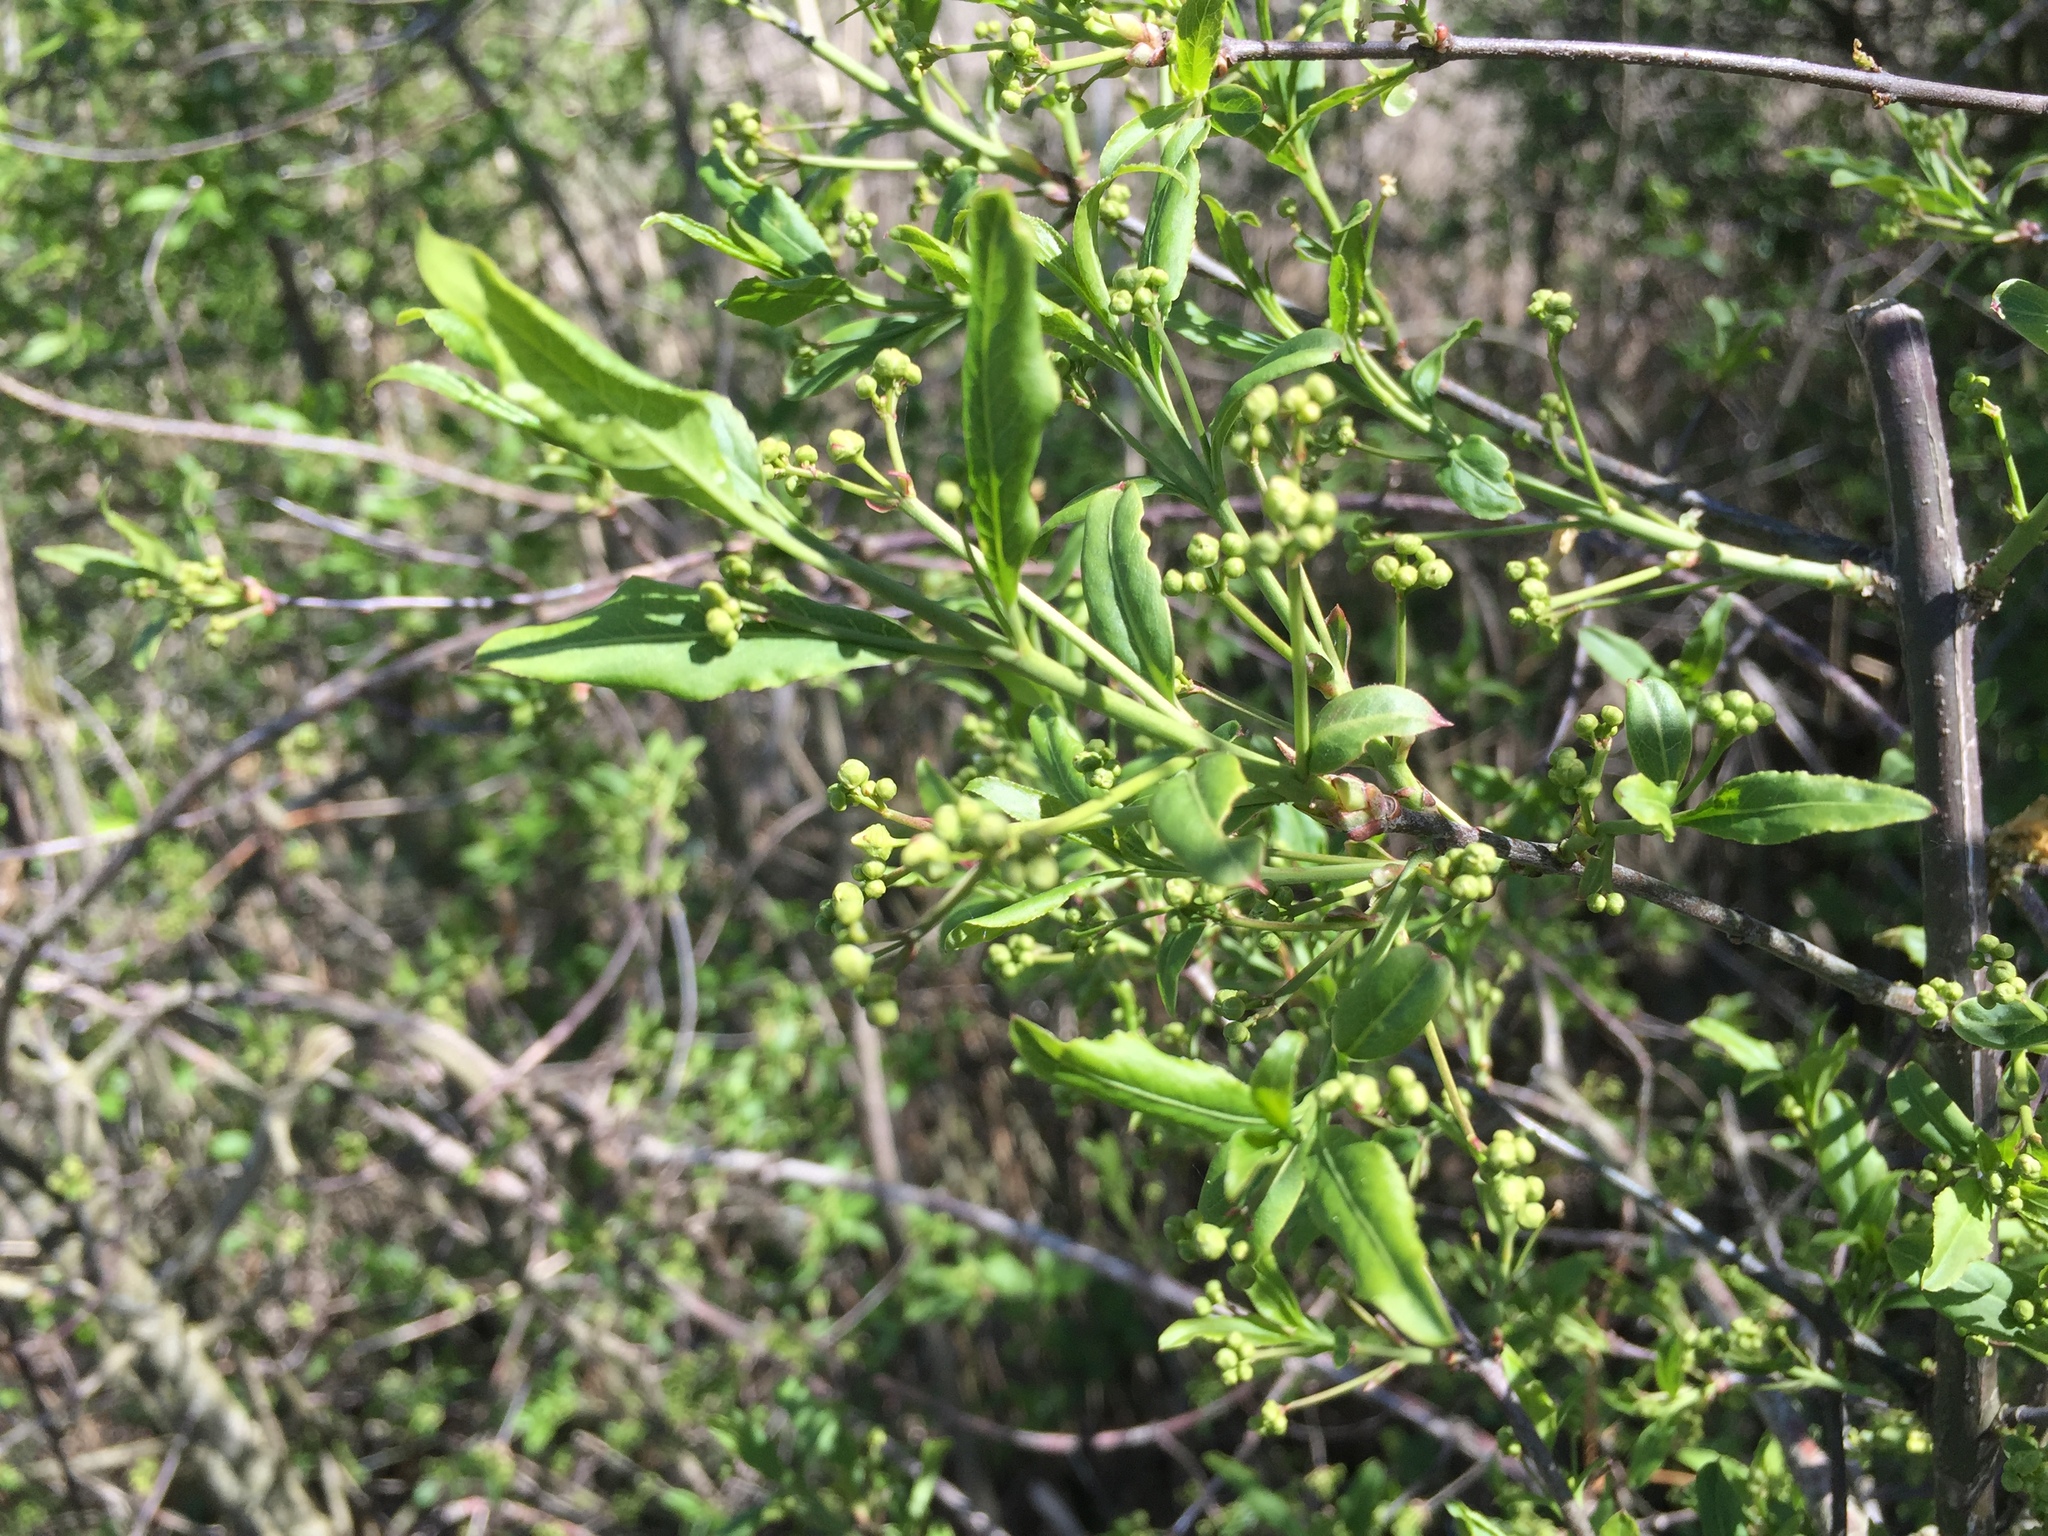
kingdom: Plantae
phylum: Tracheophyta
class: Magnoliopsida
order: Celastrales
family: Celastraceae
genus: Euonymus
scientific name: Euonymus europaeus
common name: Spindle
